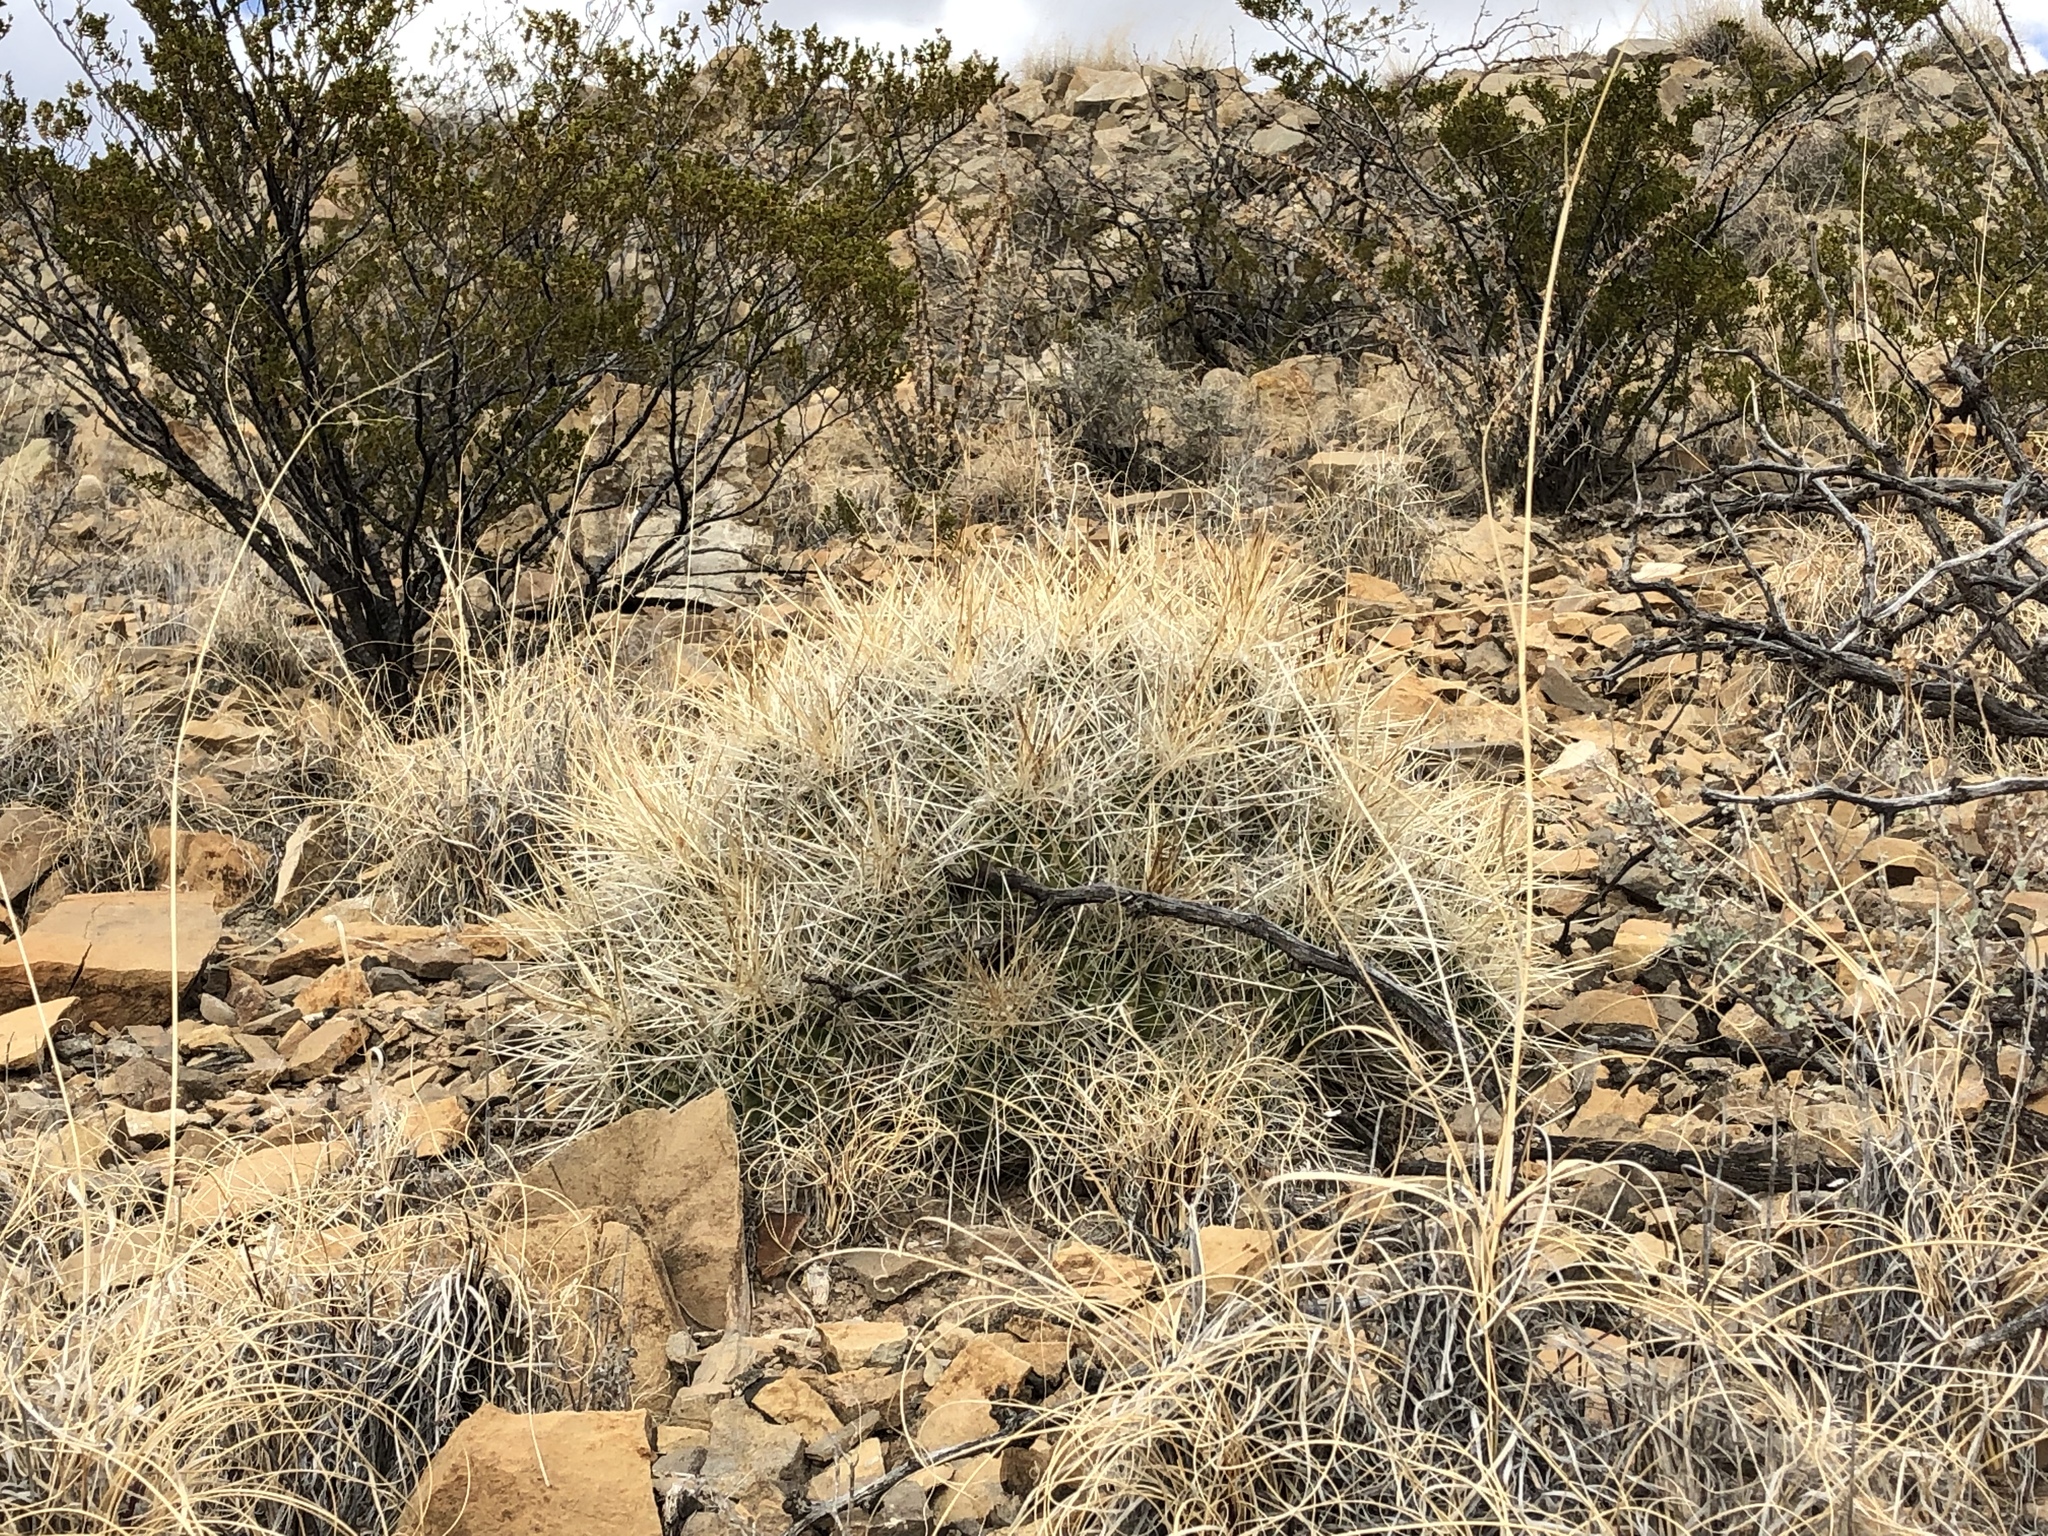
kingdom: Plantae
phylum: Tracheophyta
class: Magnoliopsida
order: Caryophyllales
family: Cactaceae
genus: Echinocereus
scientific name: Echinocereus stramineus
